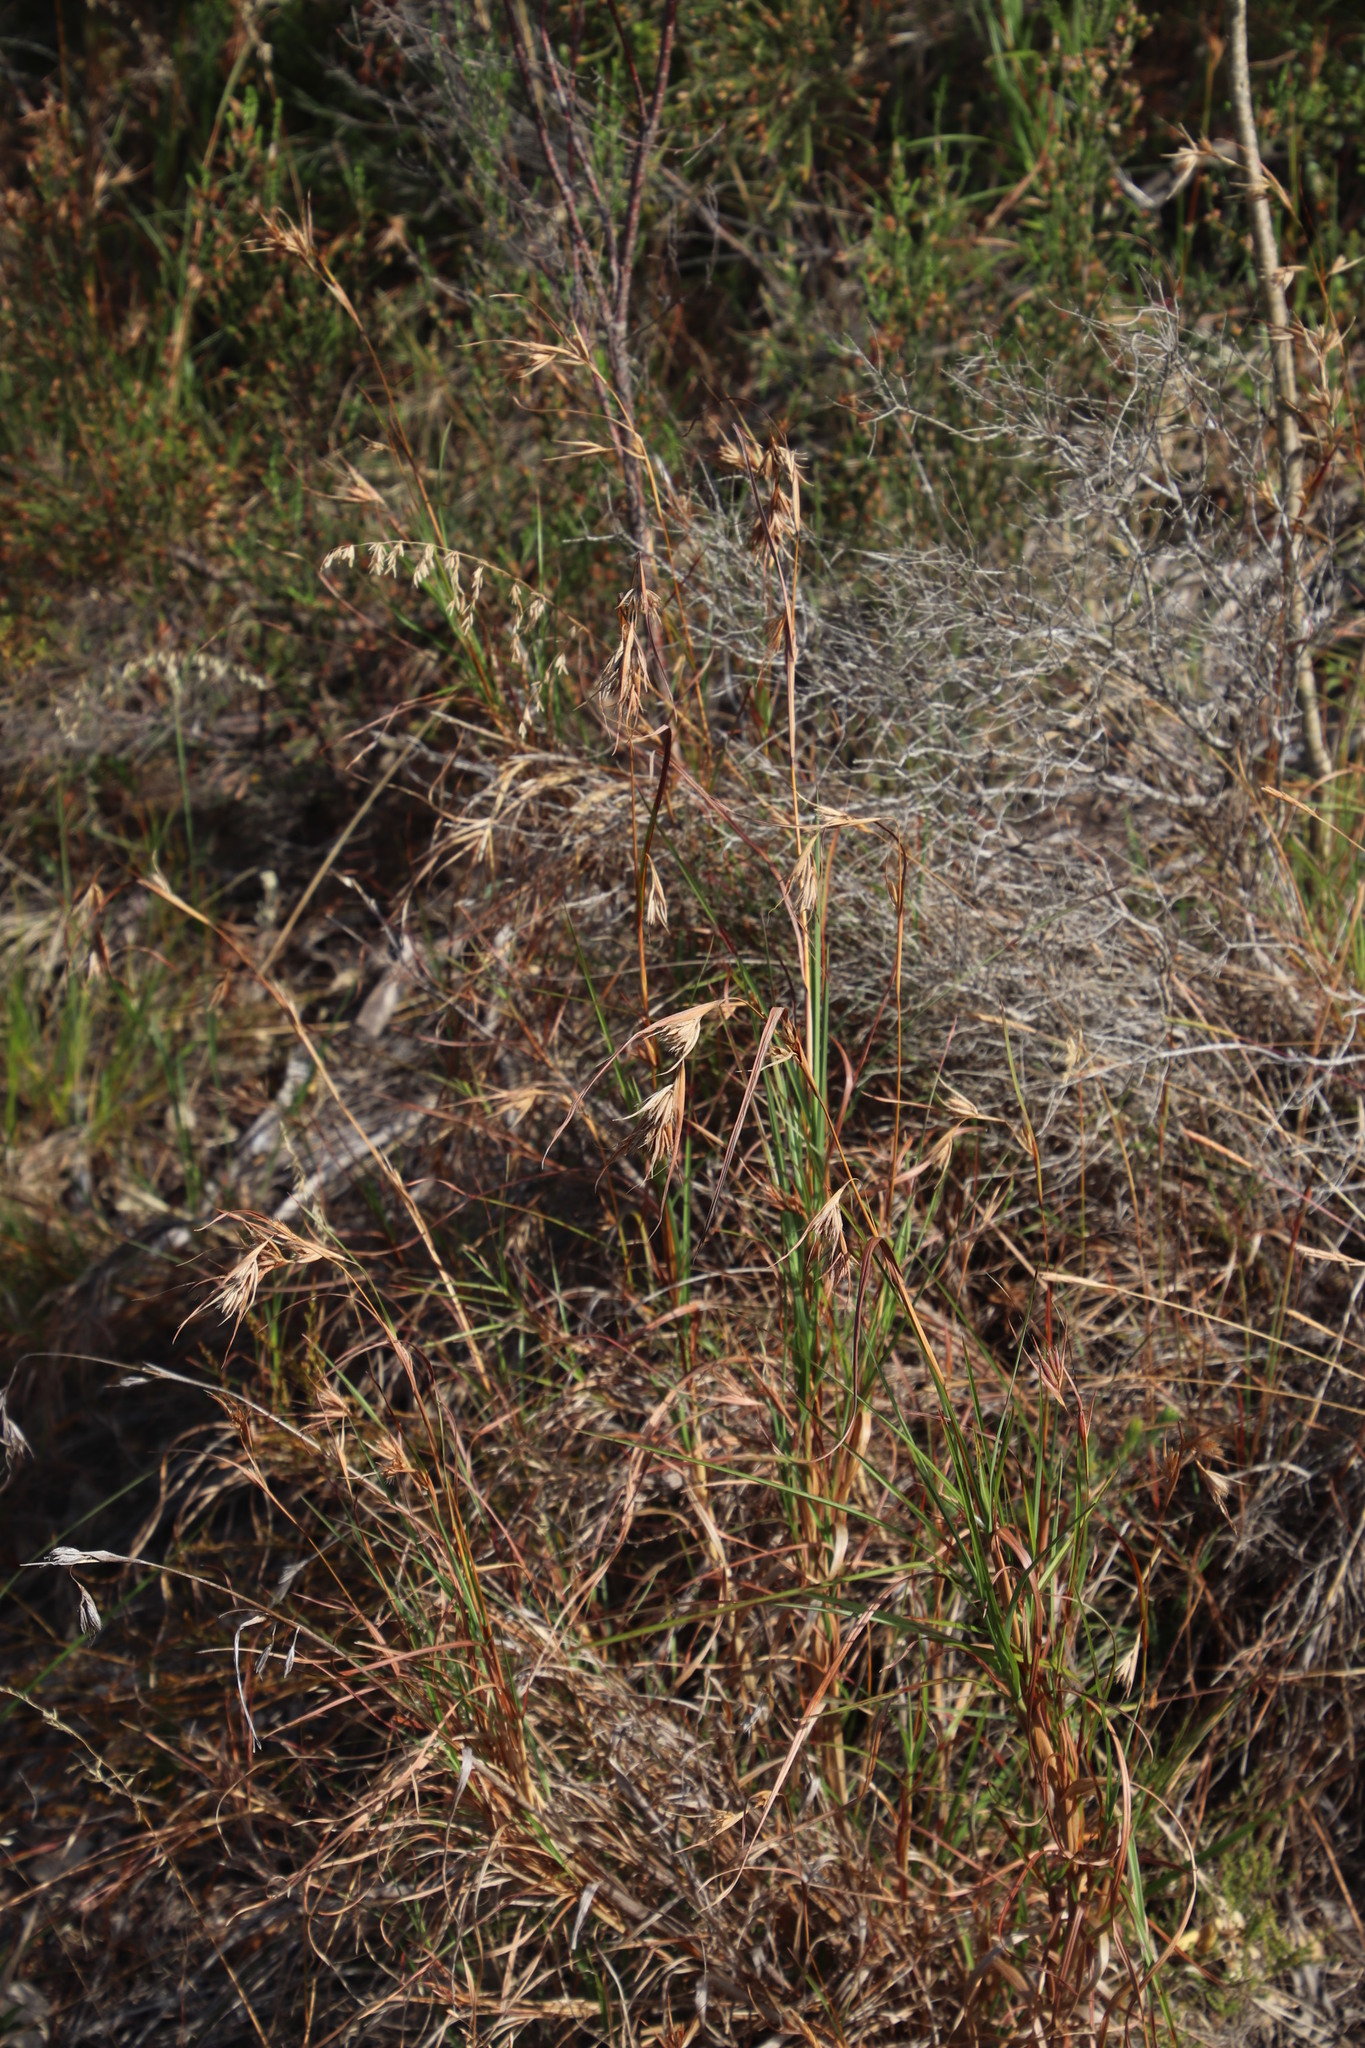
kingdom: Plantae
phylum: Tracheophyta
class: Liliopsida
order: Poales
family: Poaceae
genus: Themeda
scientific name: Themeda triandra
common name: Kangaroo grass
